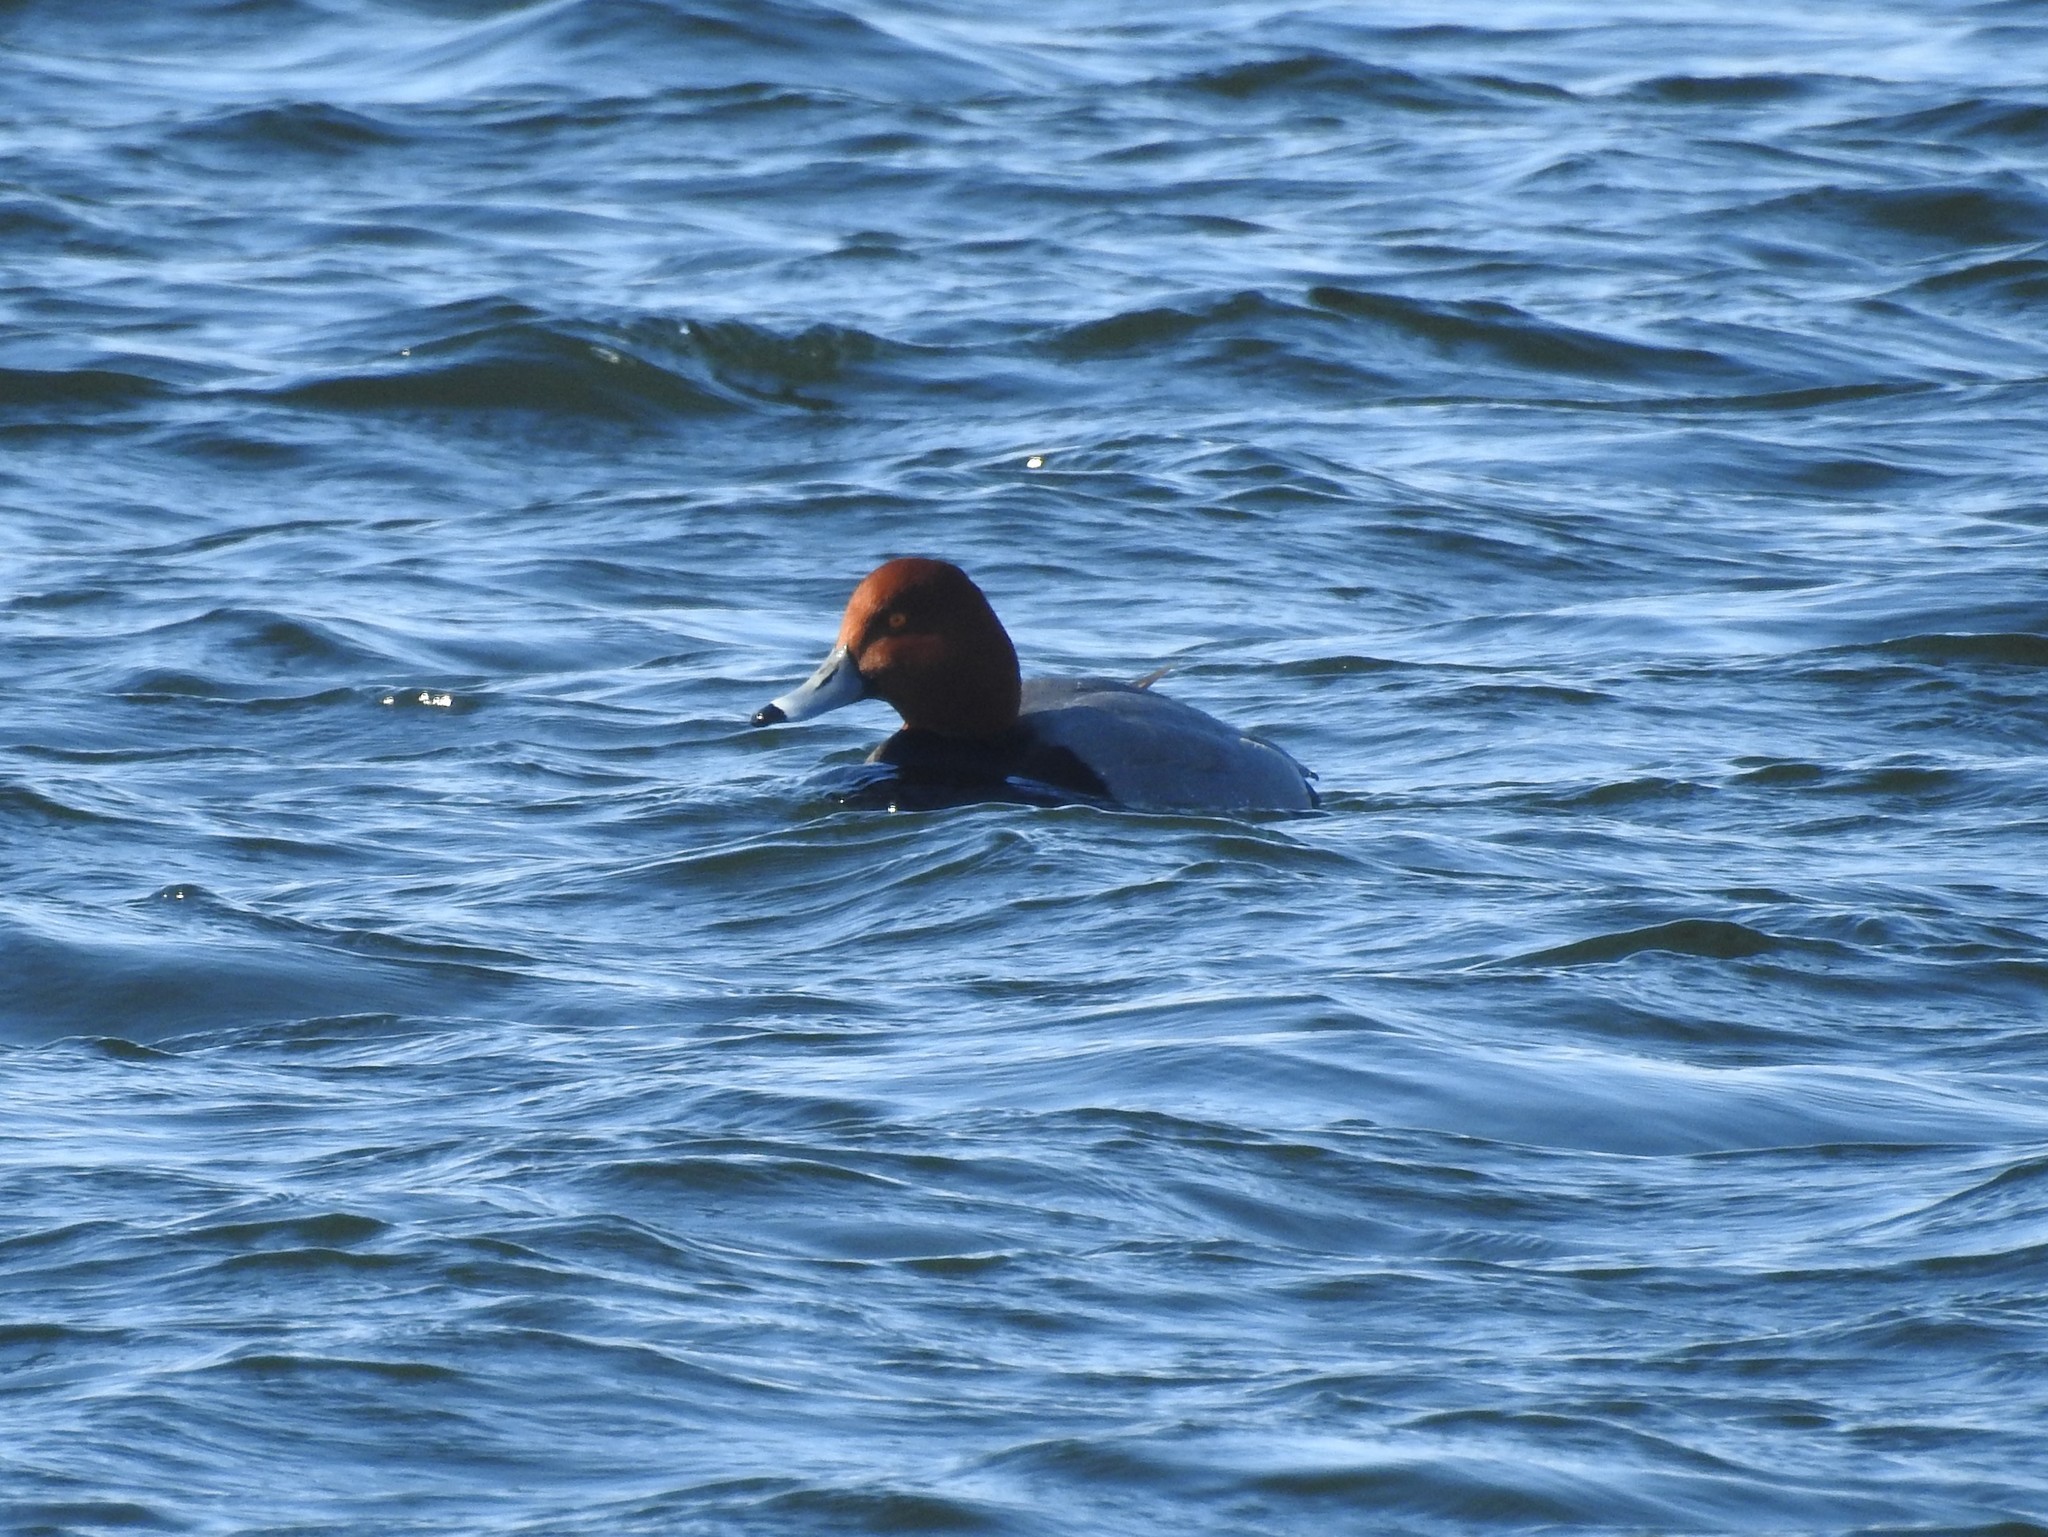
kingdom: Animalia
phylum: Chordata
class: Aves
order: Anseriformes
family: Anatidae
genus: Aythya
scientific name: Aythya americana
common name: Redhead
